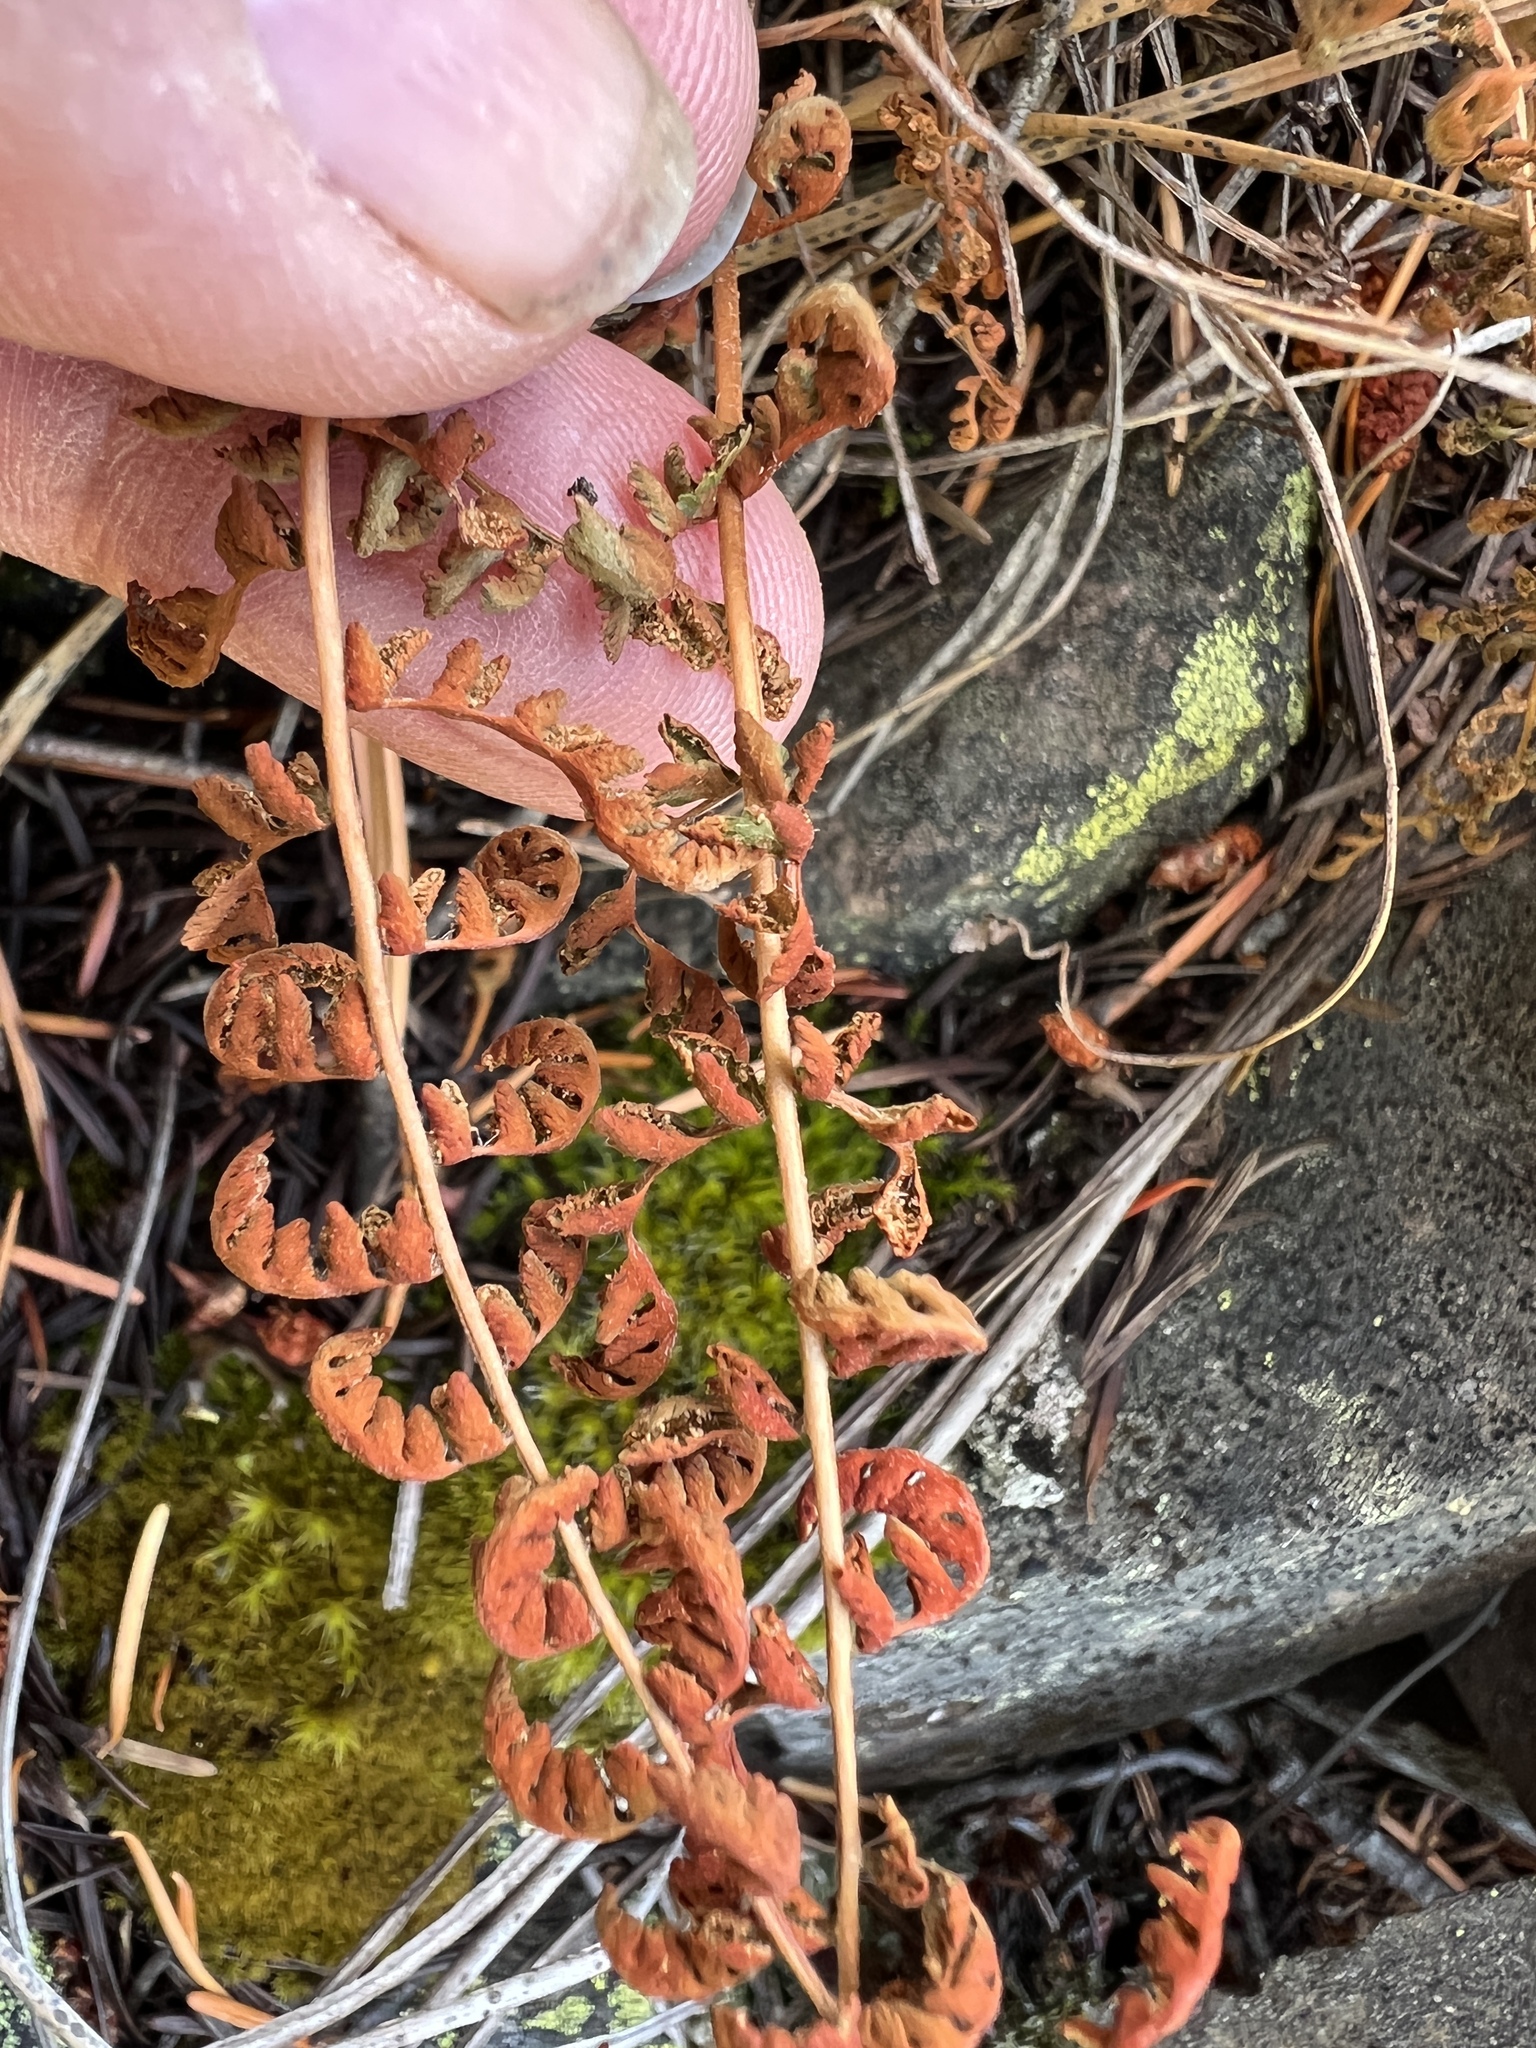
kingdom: Plantae
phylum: Tracheophyta
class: Polypodiopsida
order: Polypodiales
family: Woodsiaceae
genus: Physematium
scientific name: Physematium scopulinum
